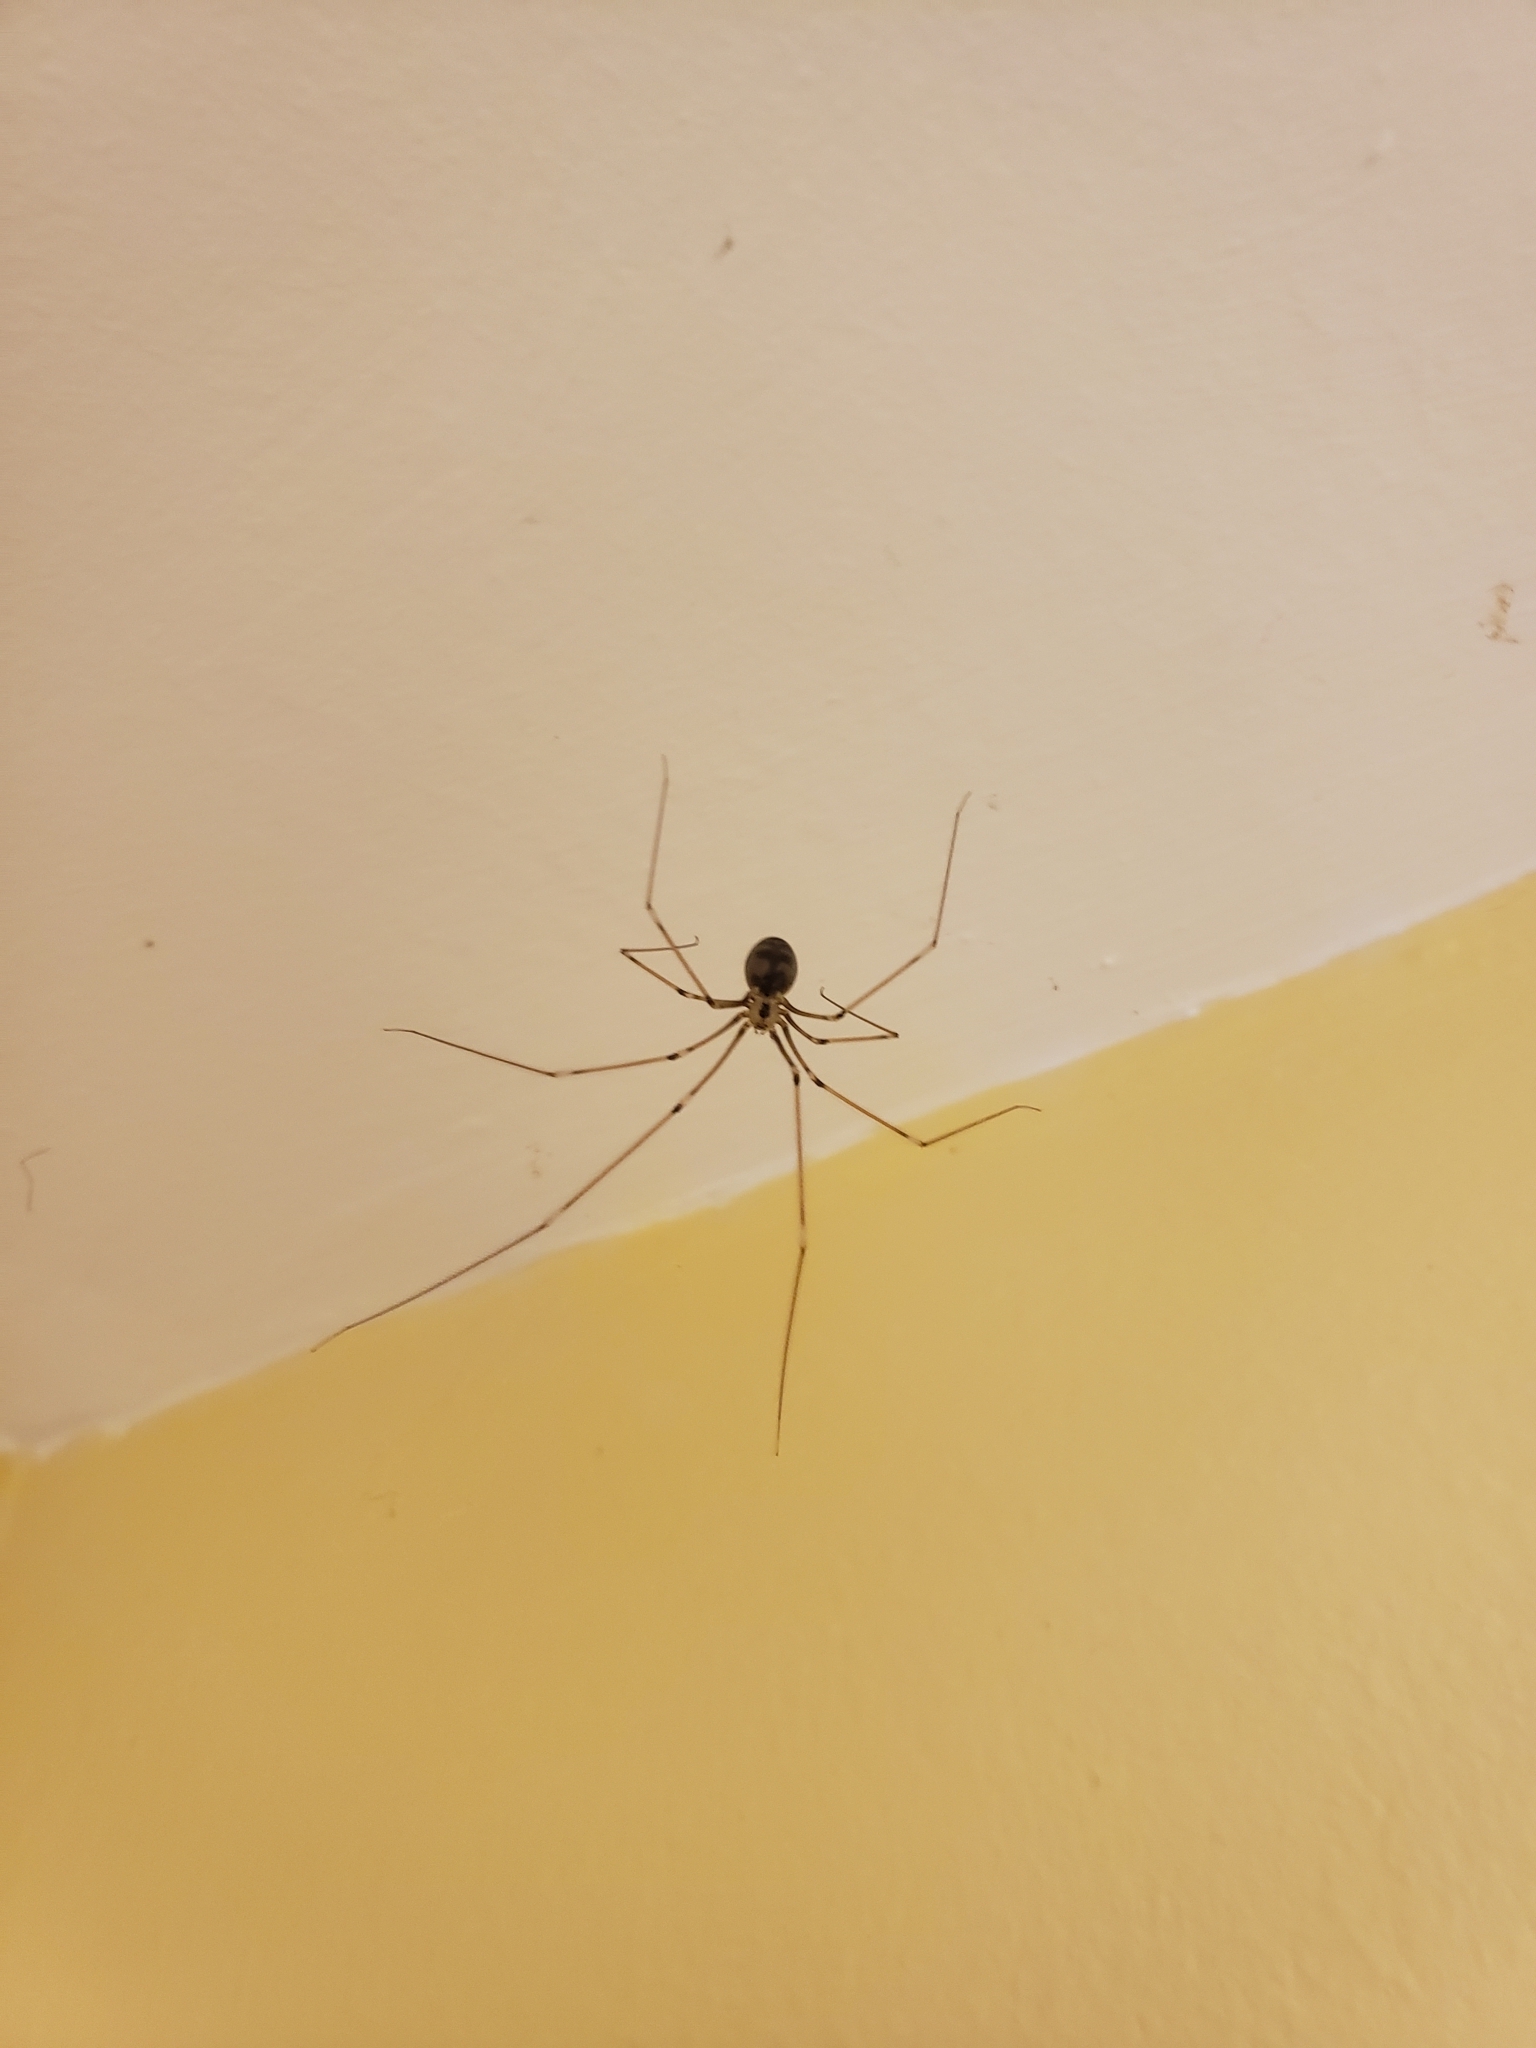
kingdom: Animalia
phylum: Arthropoda
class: Arachnida
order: Araneae
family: Pholcidae
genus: Pholcus
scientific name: Pholcus phalangioides
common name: Longbodied cellar spider
